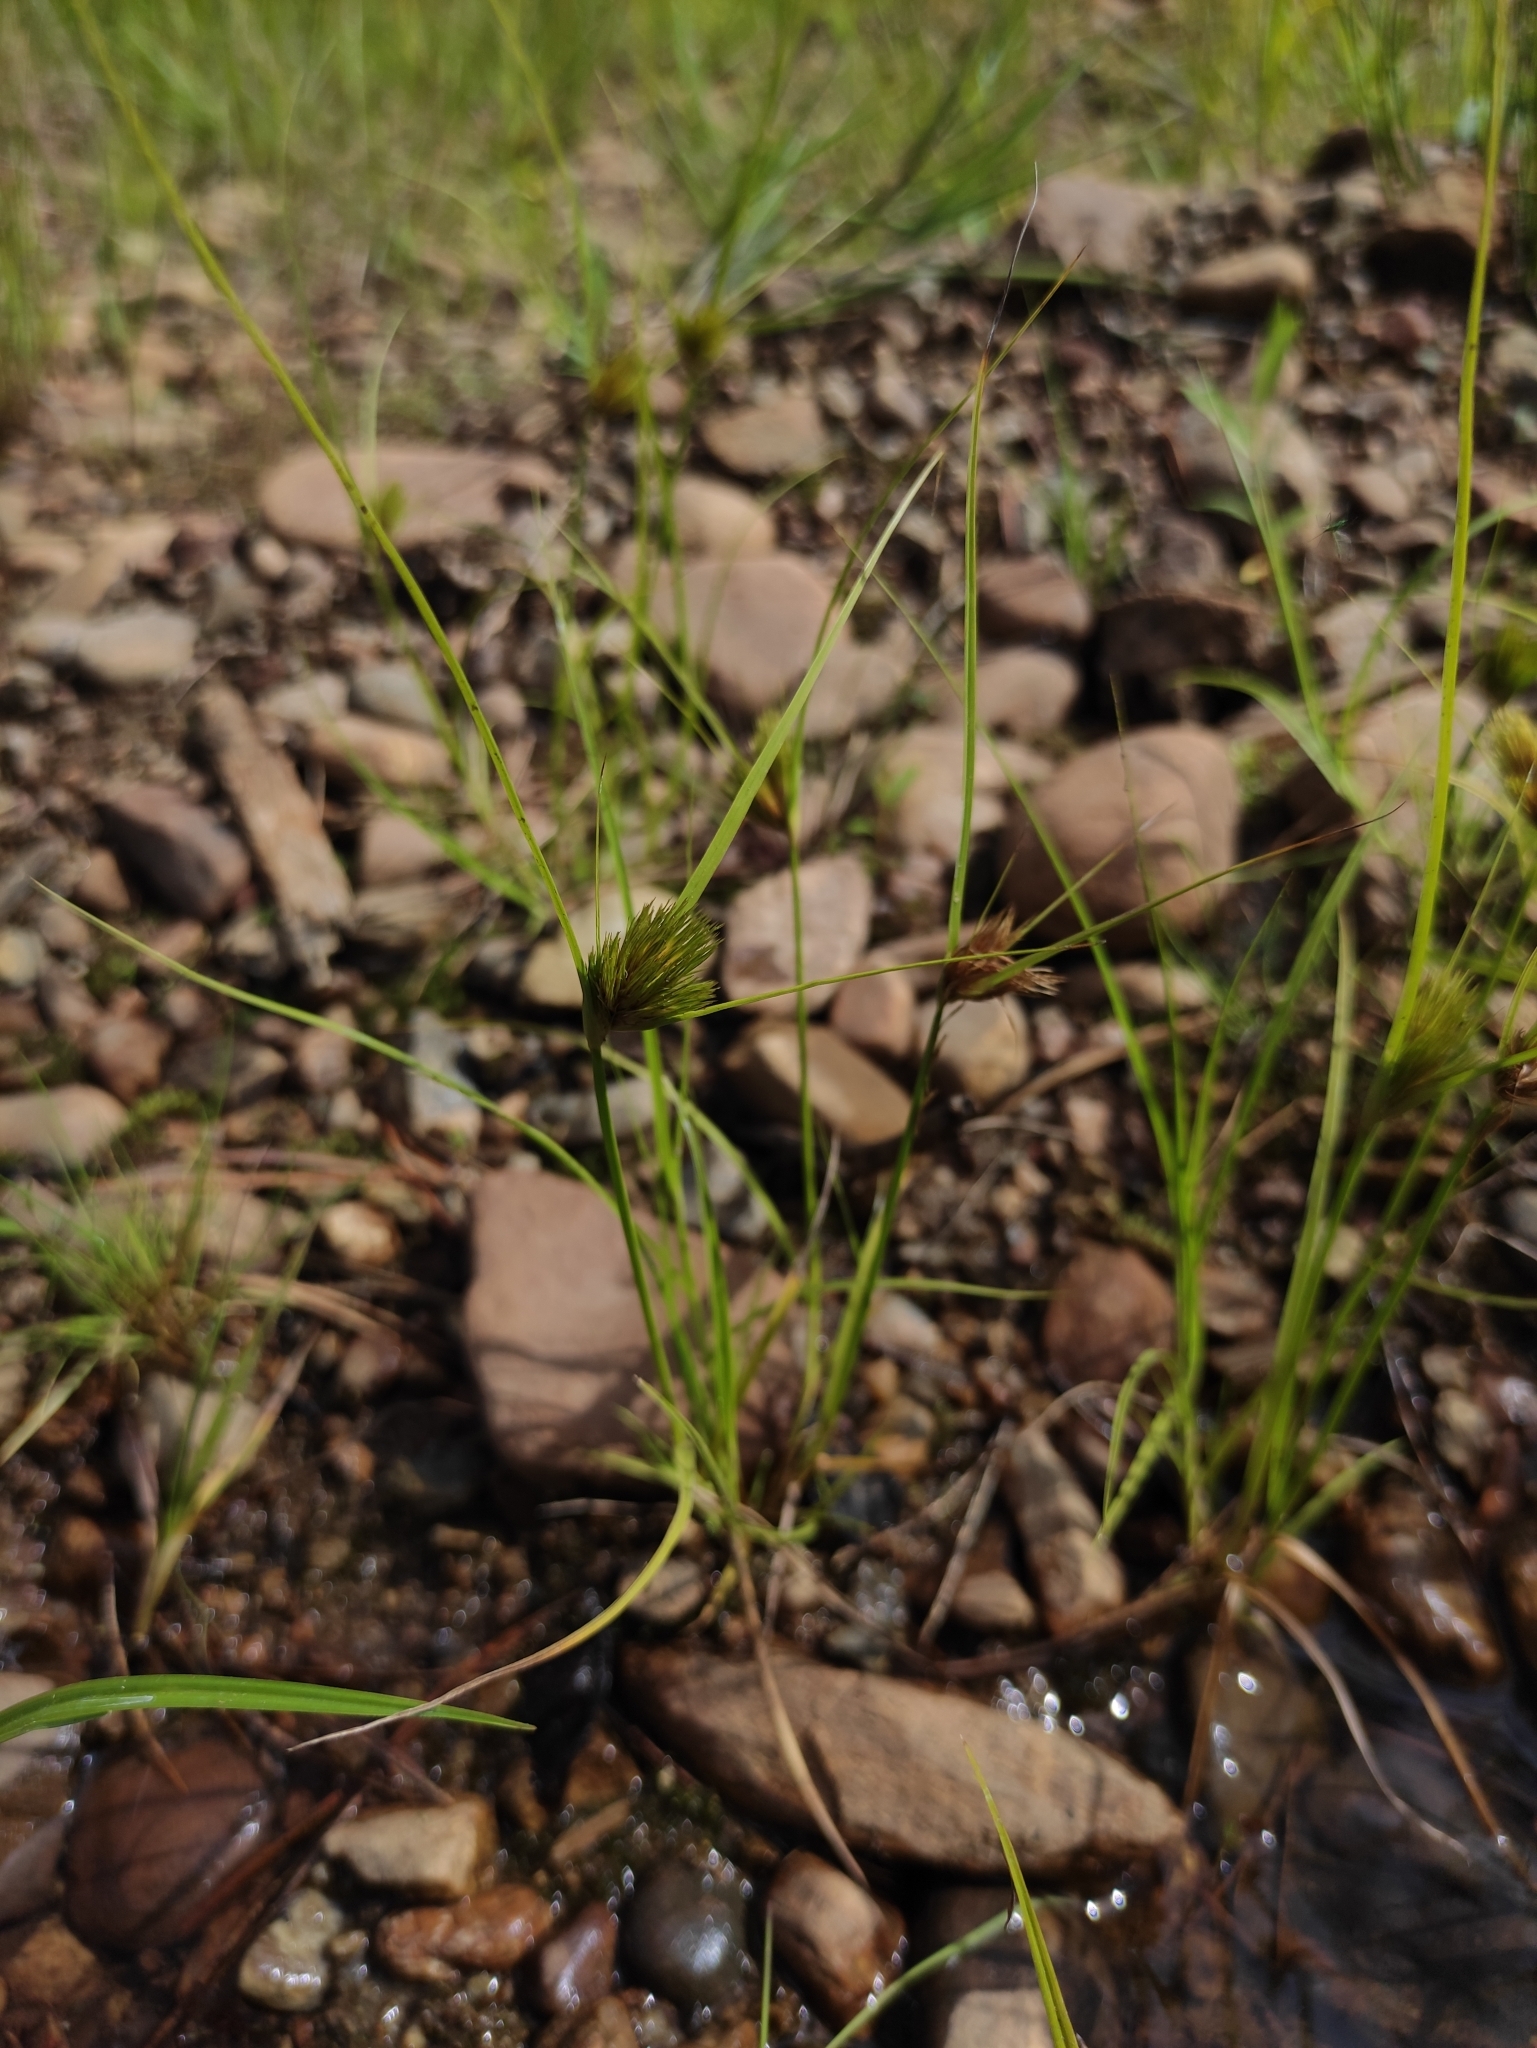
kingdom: Plantae
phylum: Tracheophyta
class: Liliopsida
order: Poales
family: Cyperaceae
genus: Carex
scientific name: Carex bohemica
